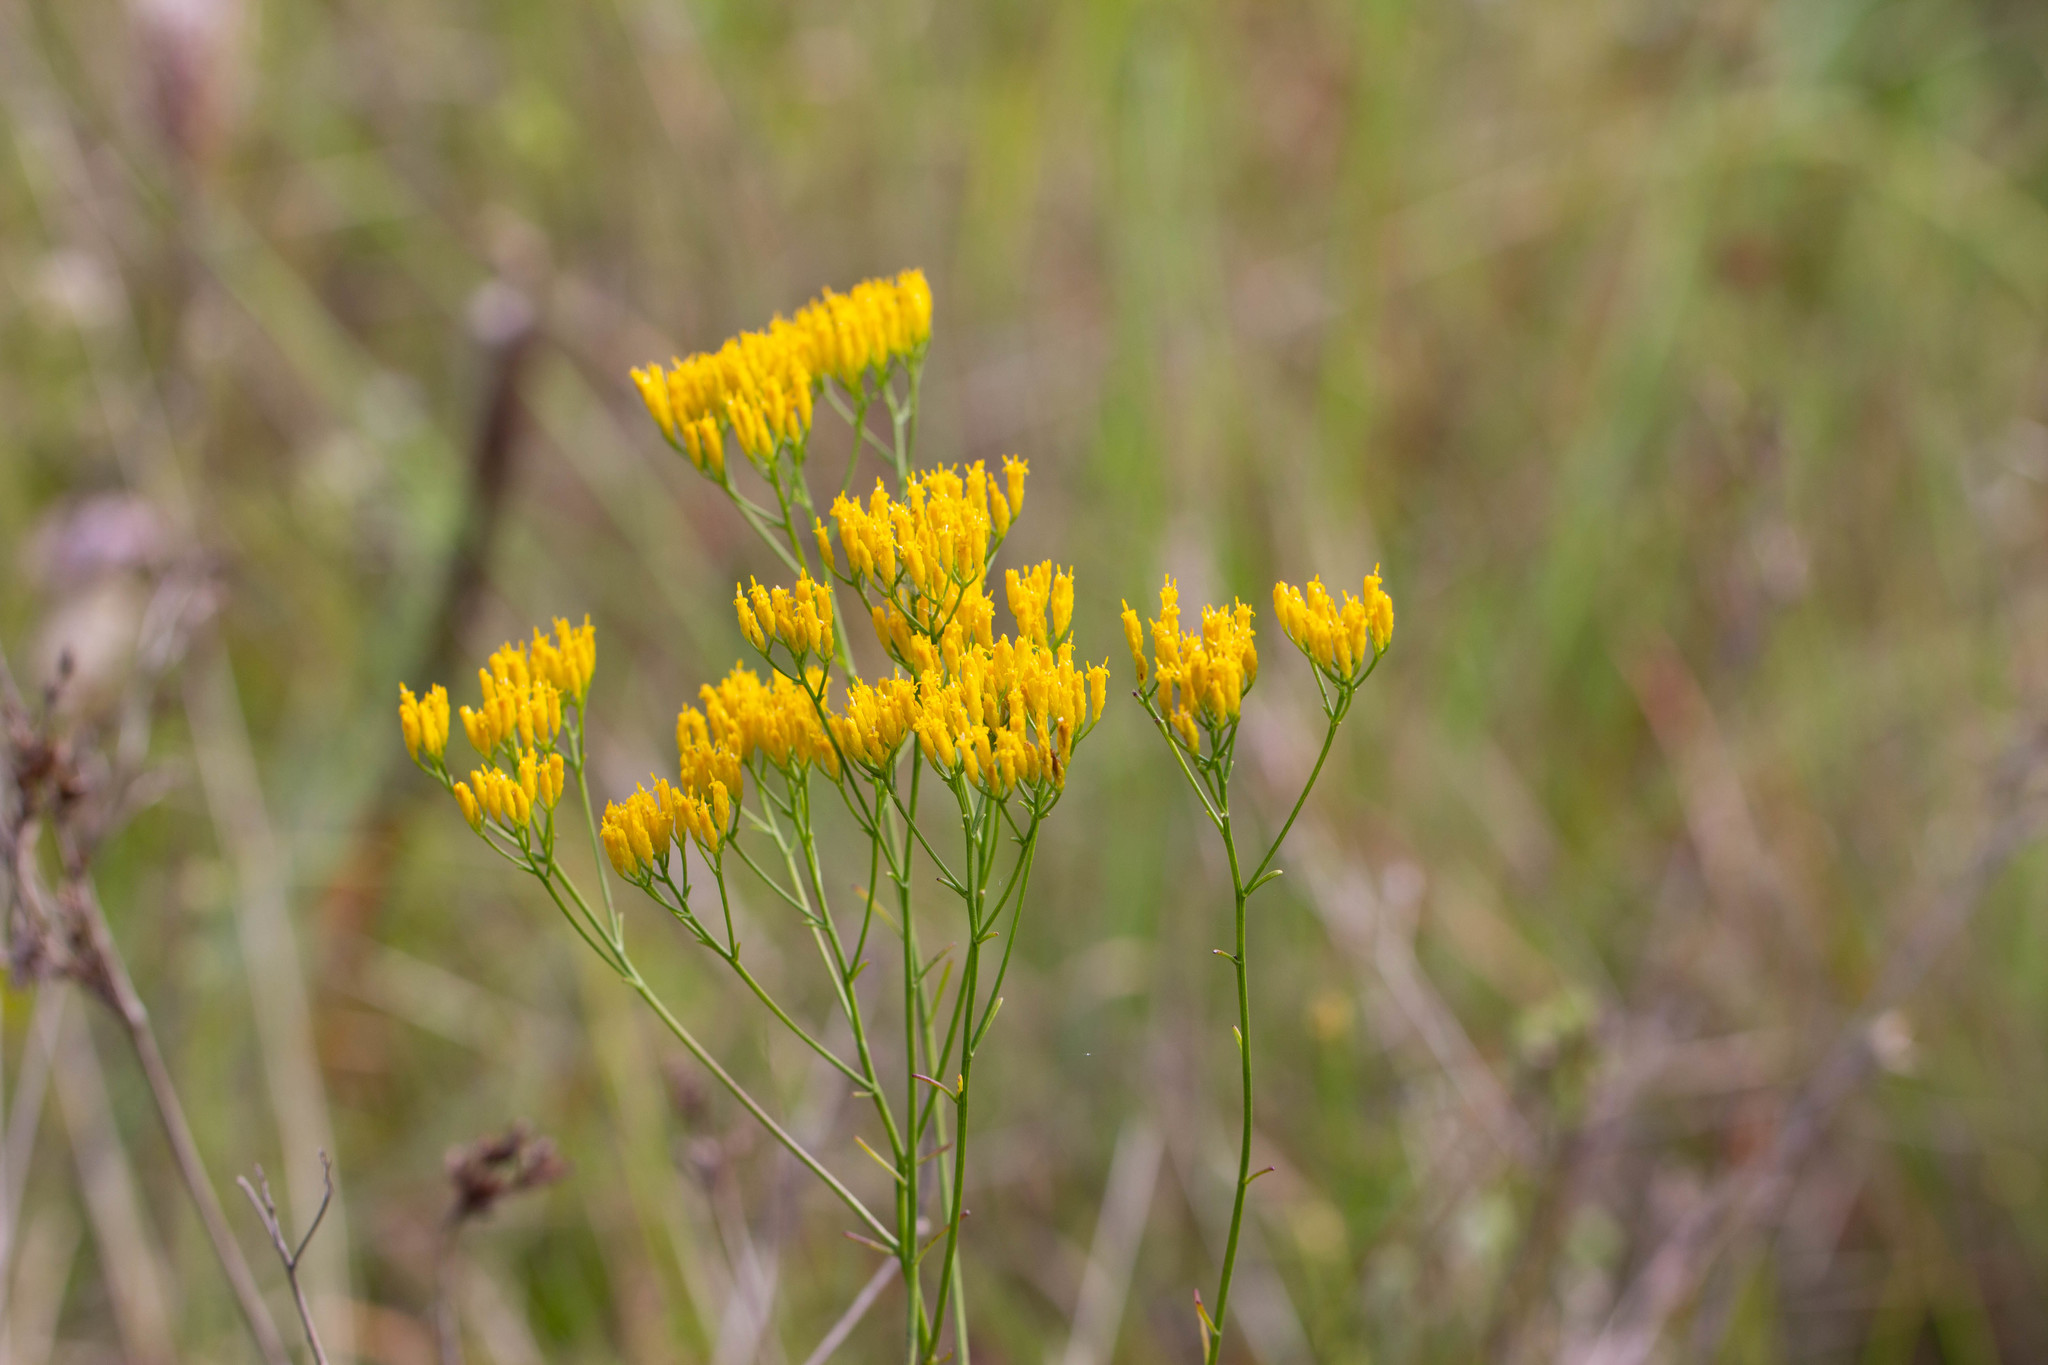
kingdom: Plantae
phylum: Tracheophyta
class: Magnoliopsida
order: Asterales
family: Asteraceae
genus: Bigelowia
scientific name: Bigelowia nudata
